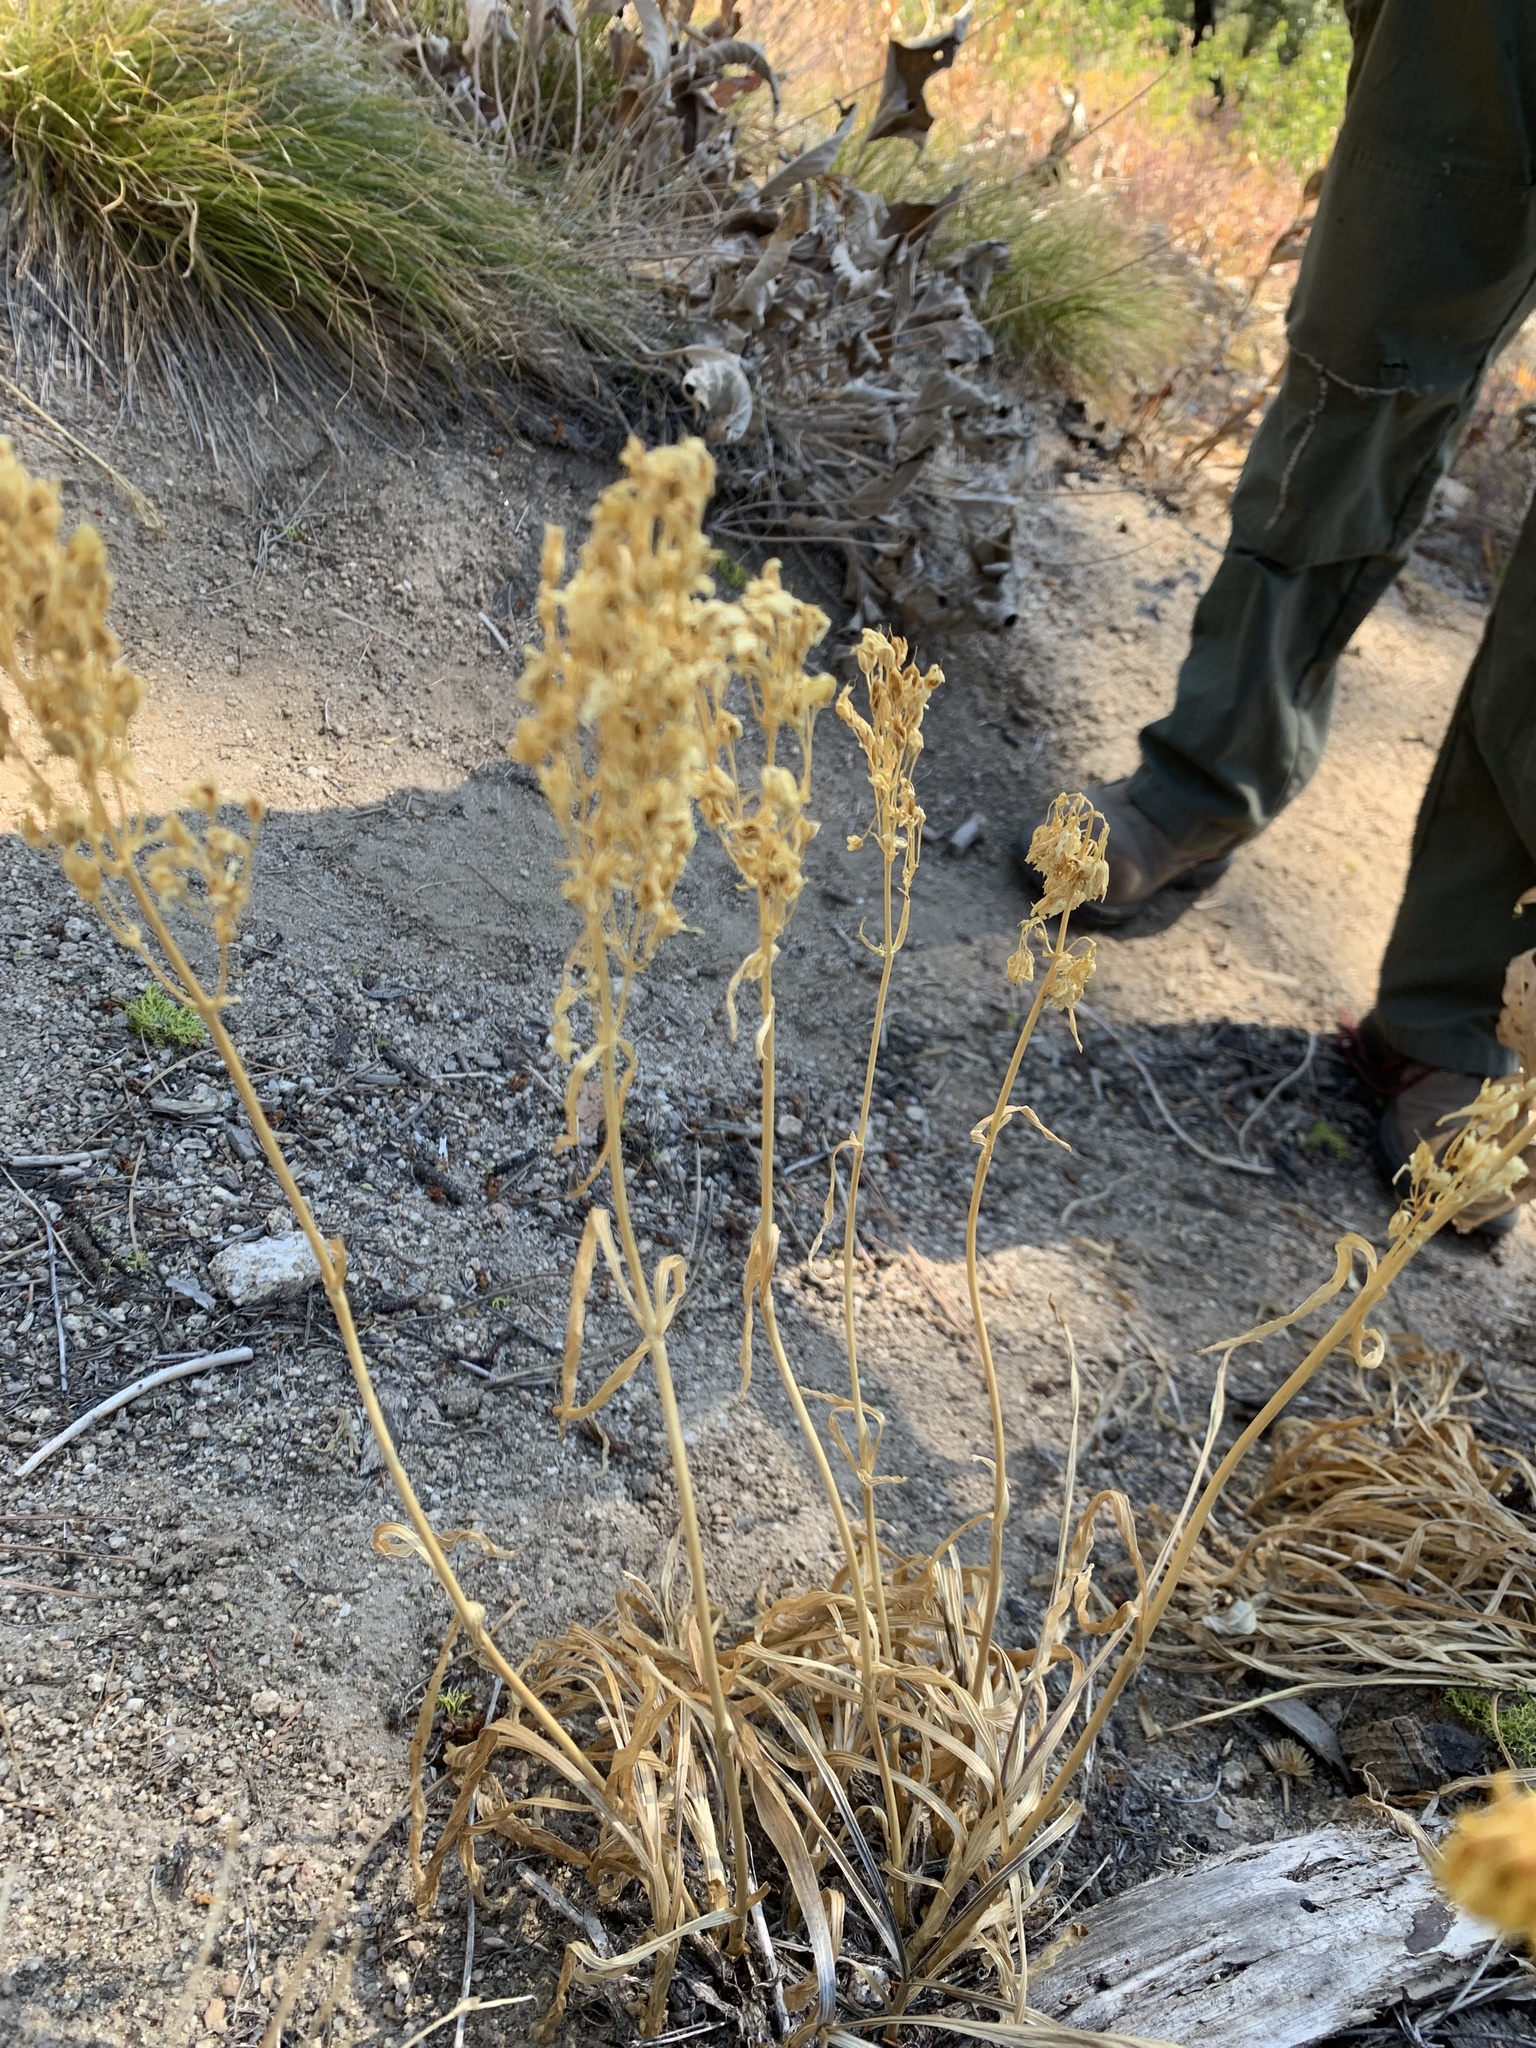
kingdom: Plantae
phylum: Tracheophyta
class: Magnoliopsida
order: Gentianales
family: Gentianaceae
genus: Frasera
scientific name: Frasera montana
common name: White frasera
